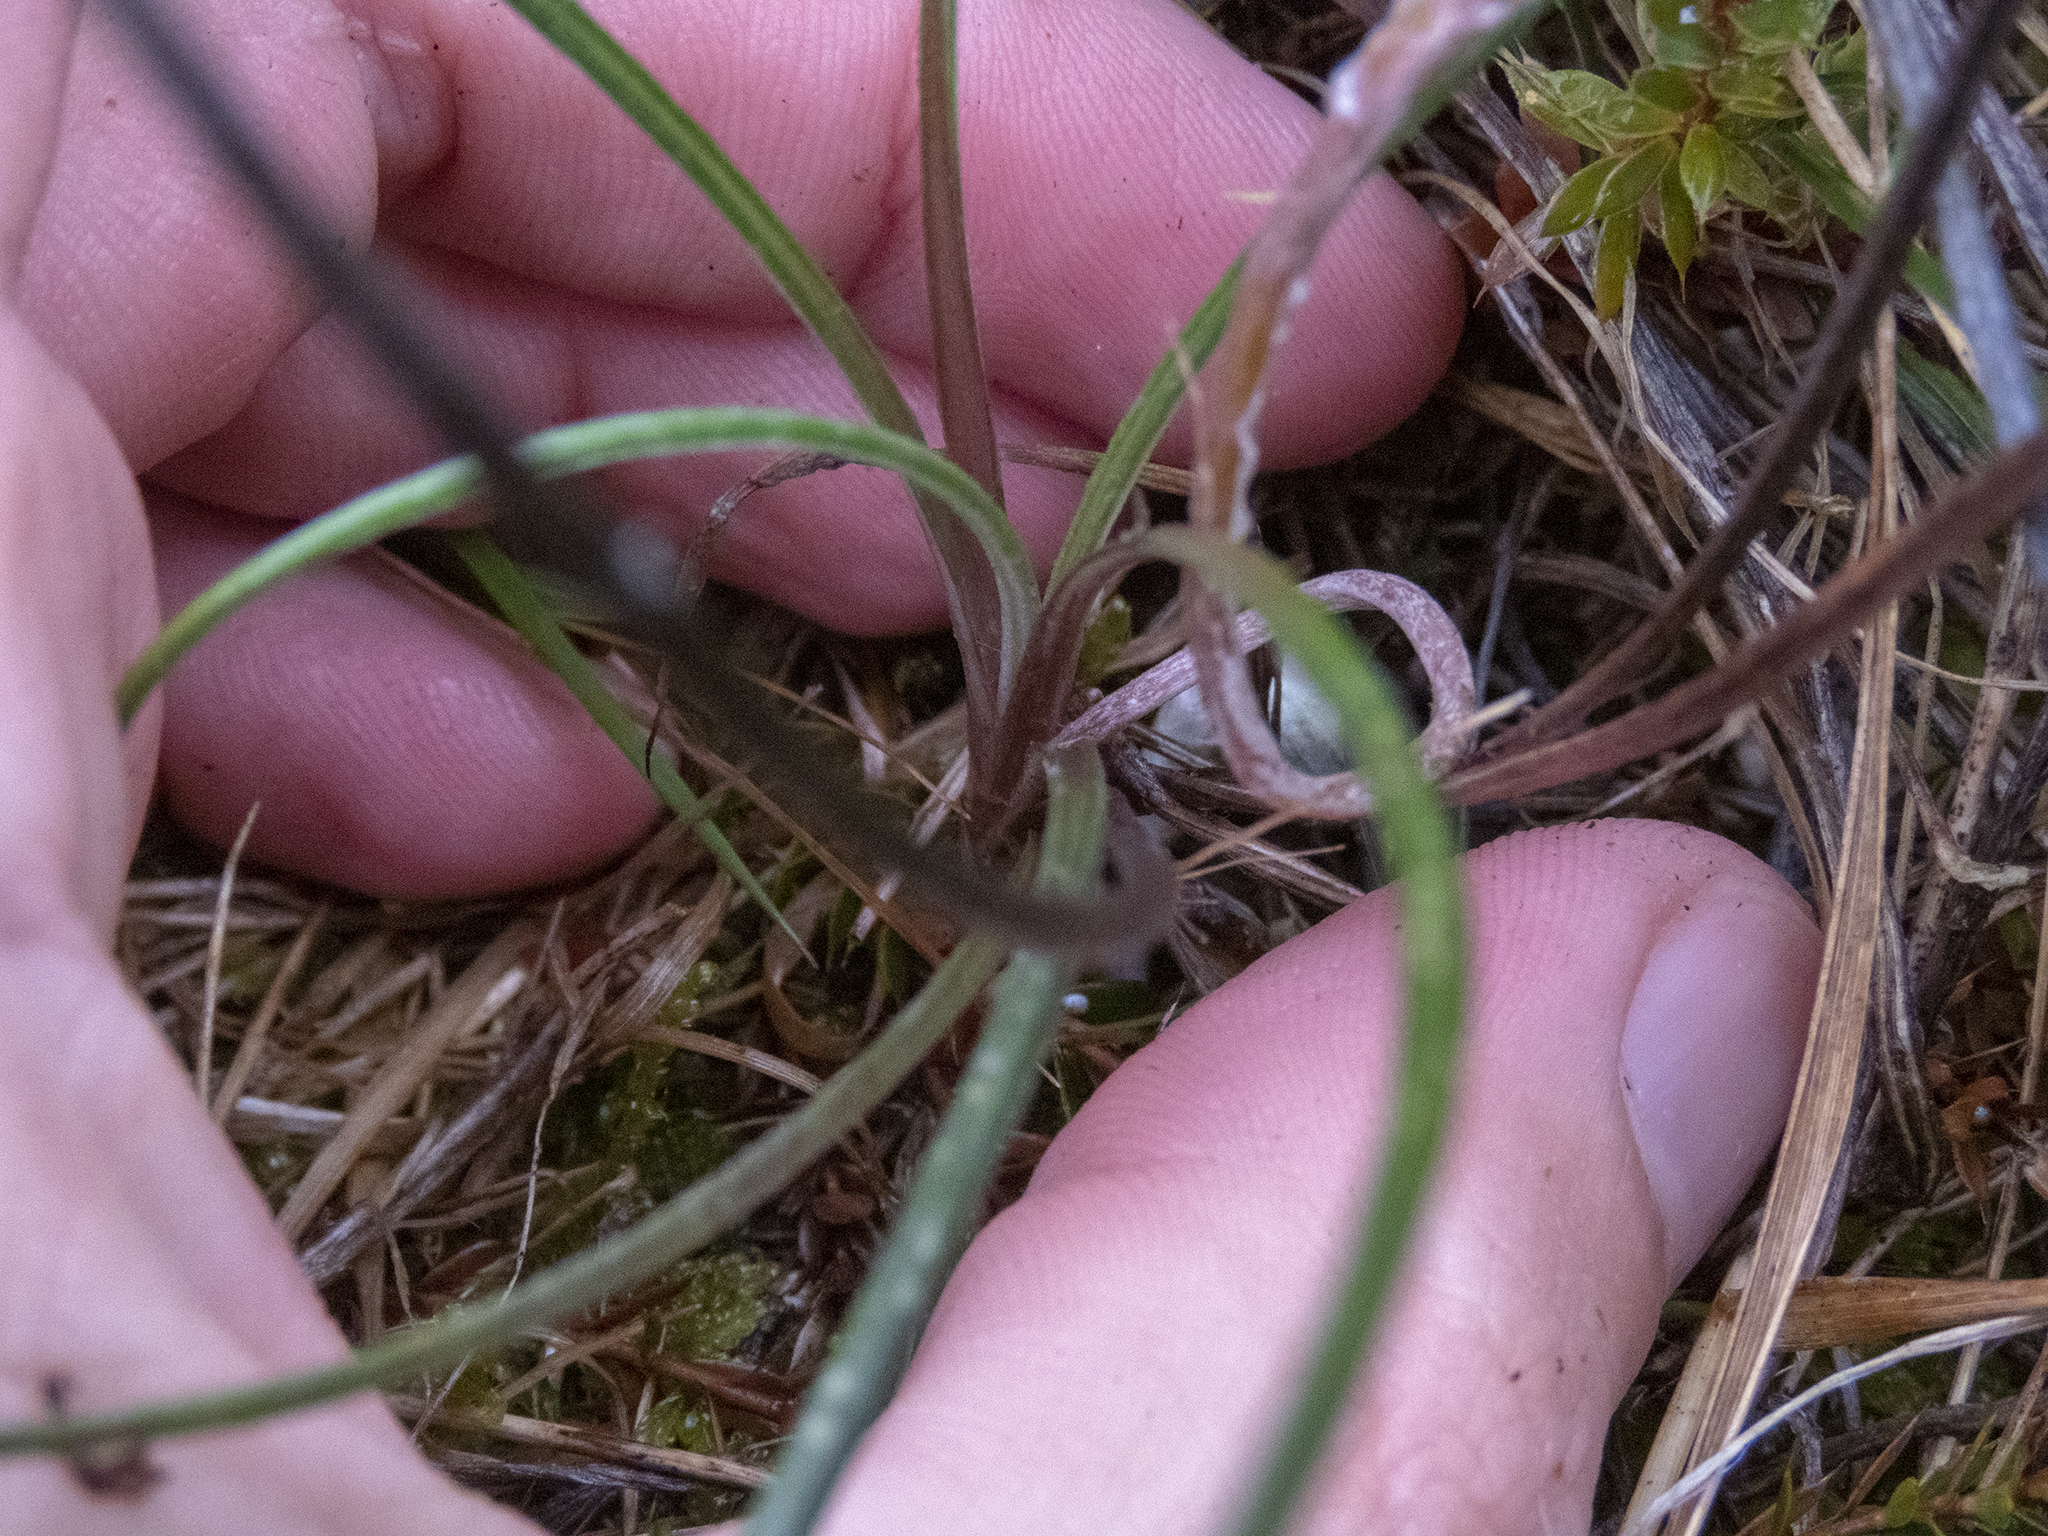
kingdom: Plantae
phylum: Tracheophyta
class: Magnoliopsida
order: Asterales
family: Asteraceae
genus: Celmisia
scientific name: Celmisia gracilenta
